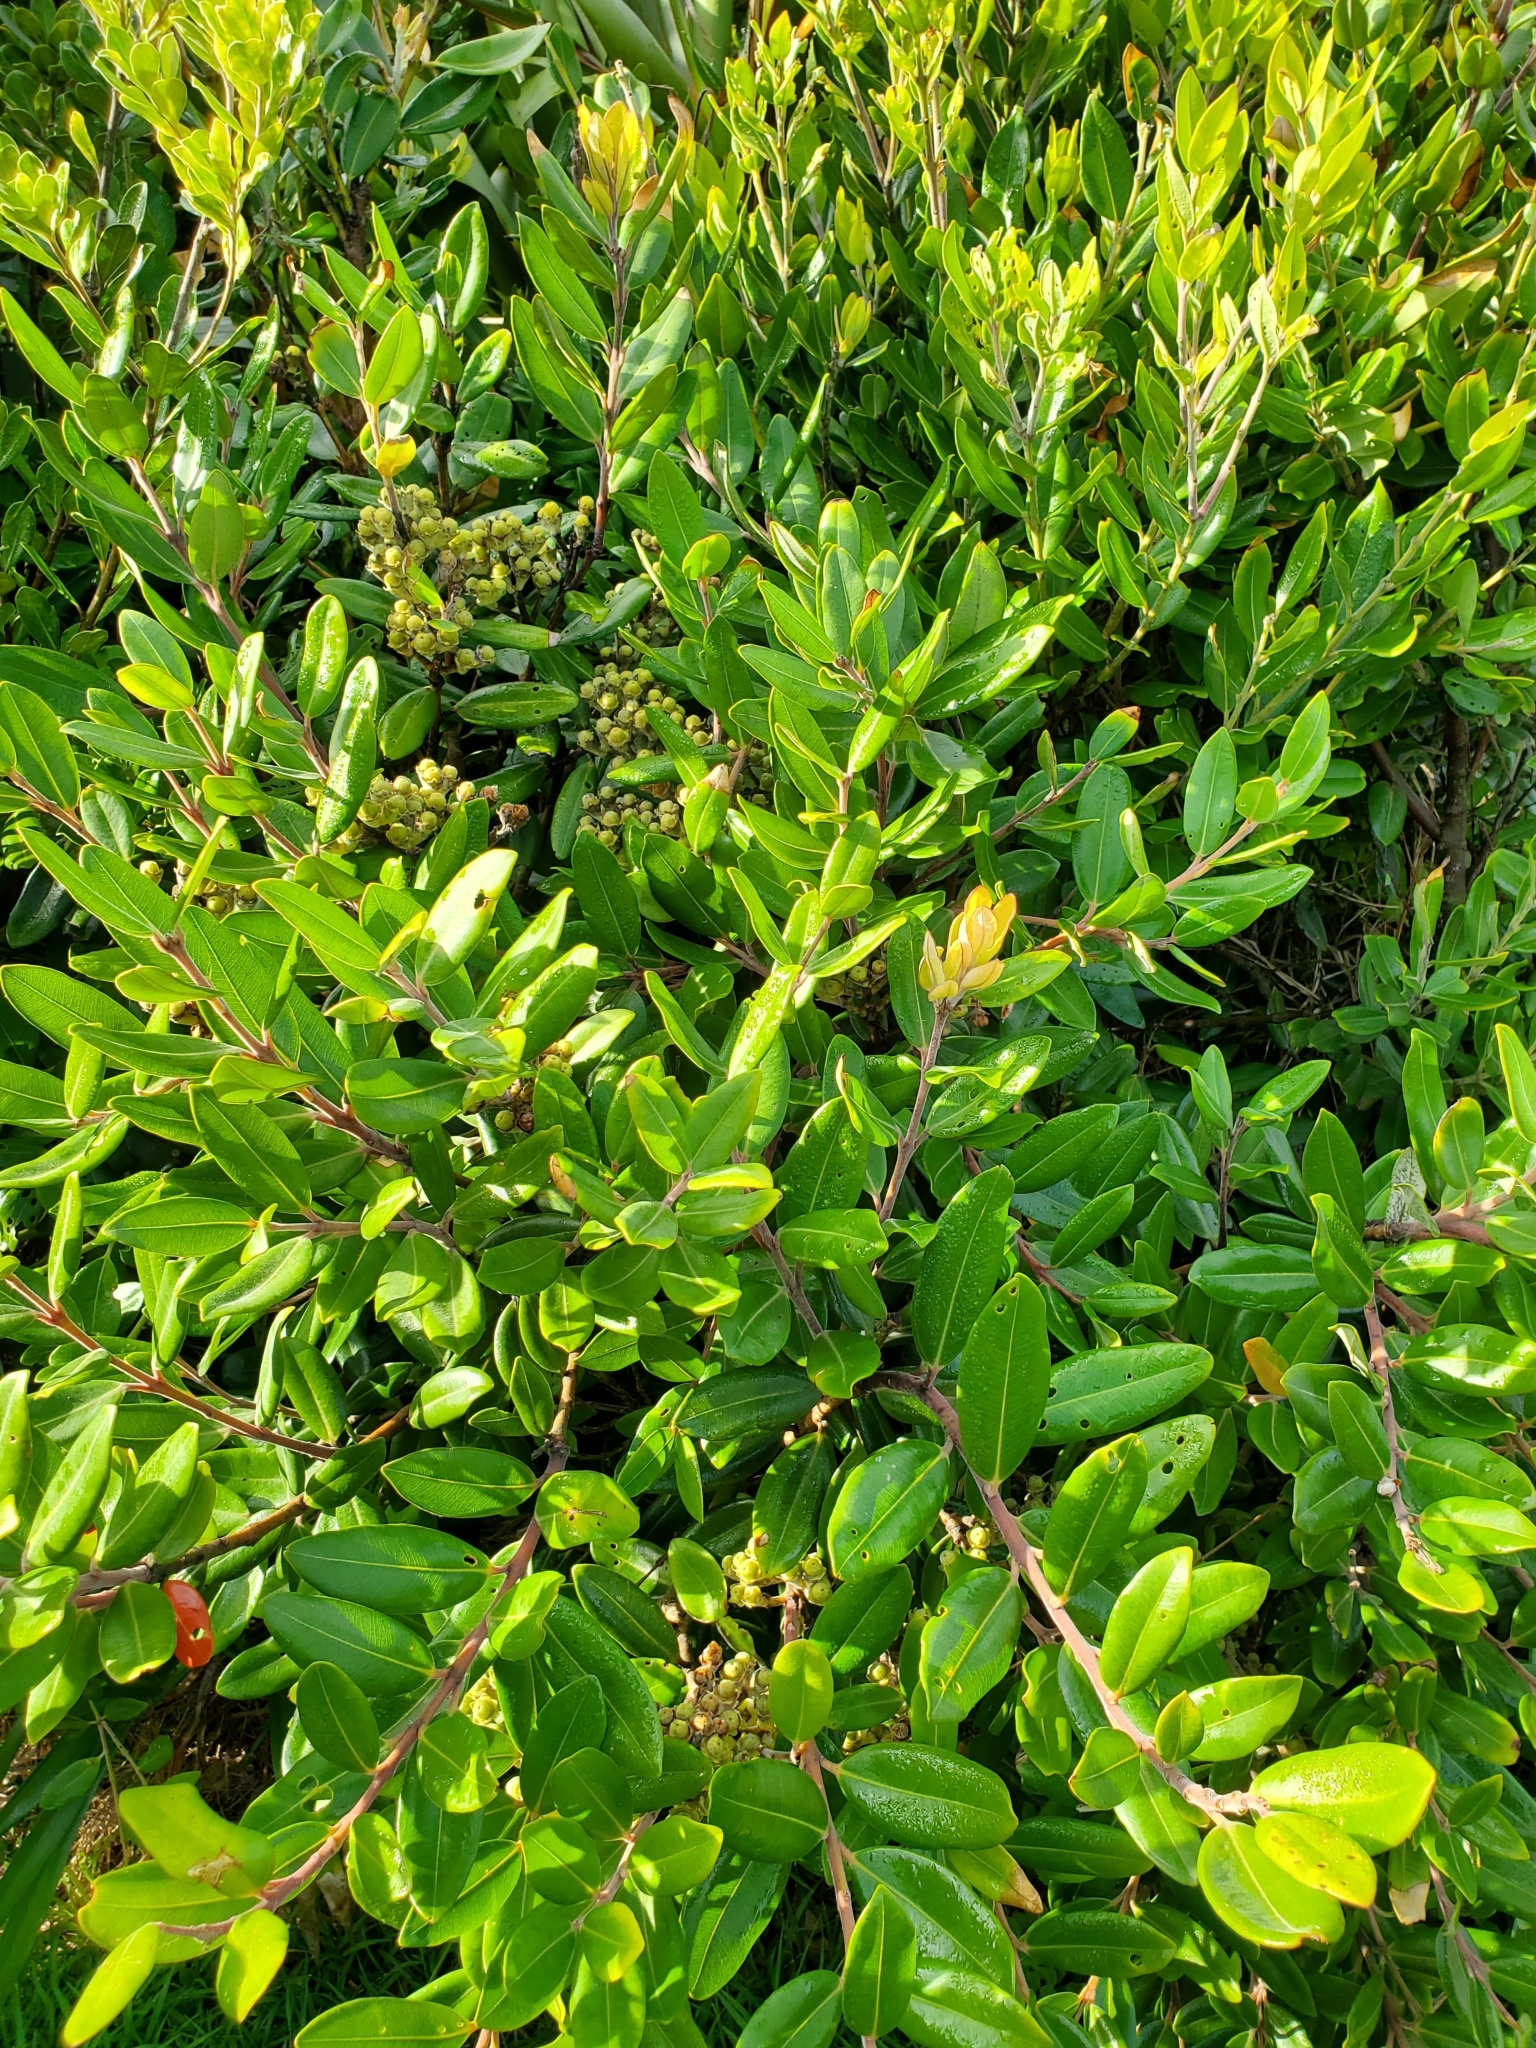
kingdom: Plantae
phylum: Tracheophyta
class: Magnoliopsida
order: Myrtales
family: Myrtaceae
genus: Metrosideros
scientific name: Metrosideros excelsa
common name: New zealand christmastree
